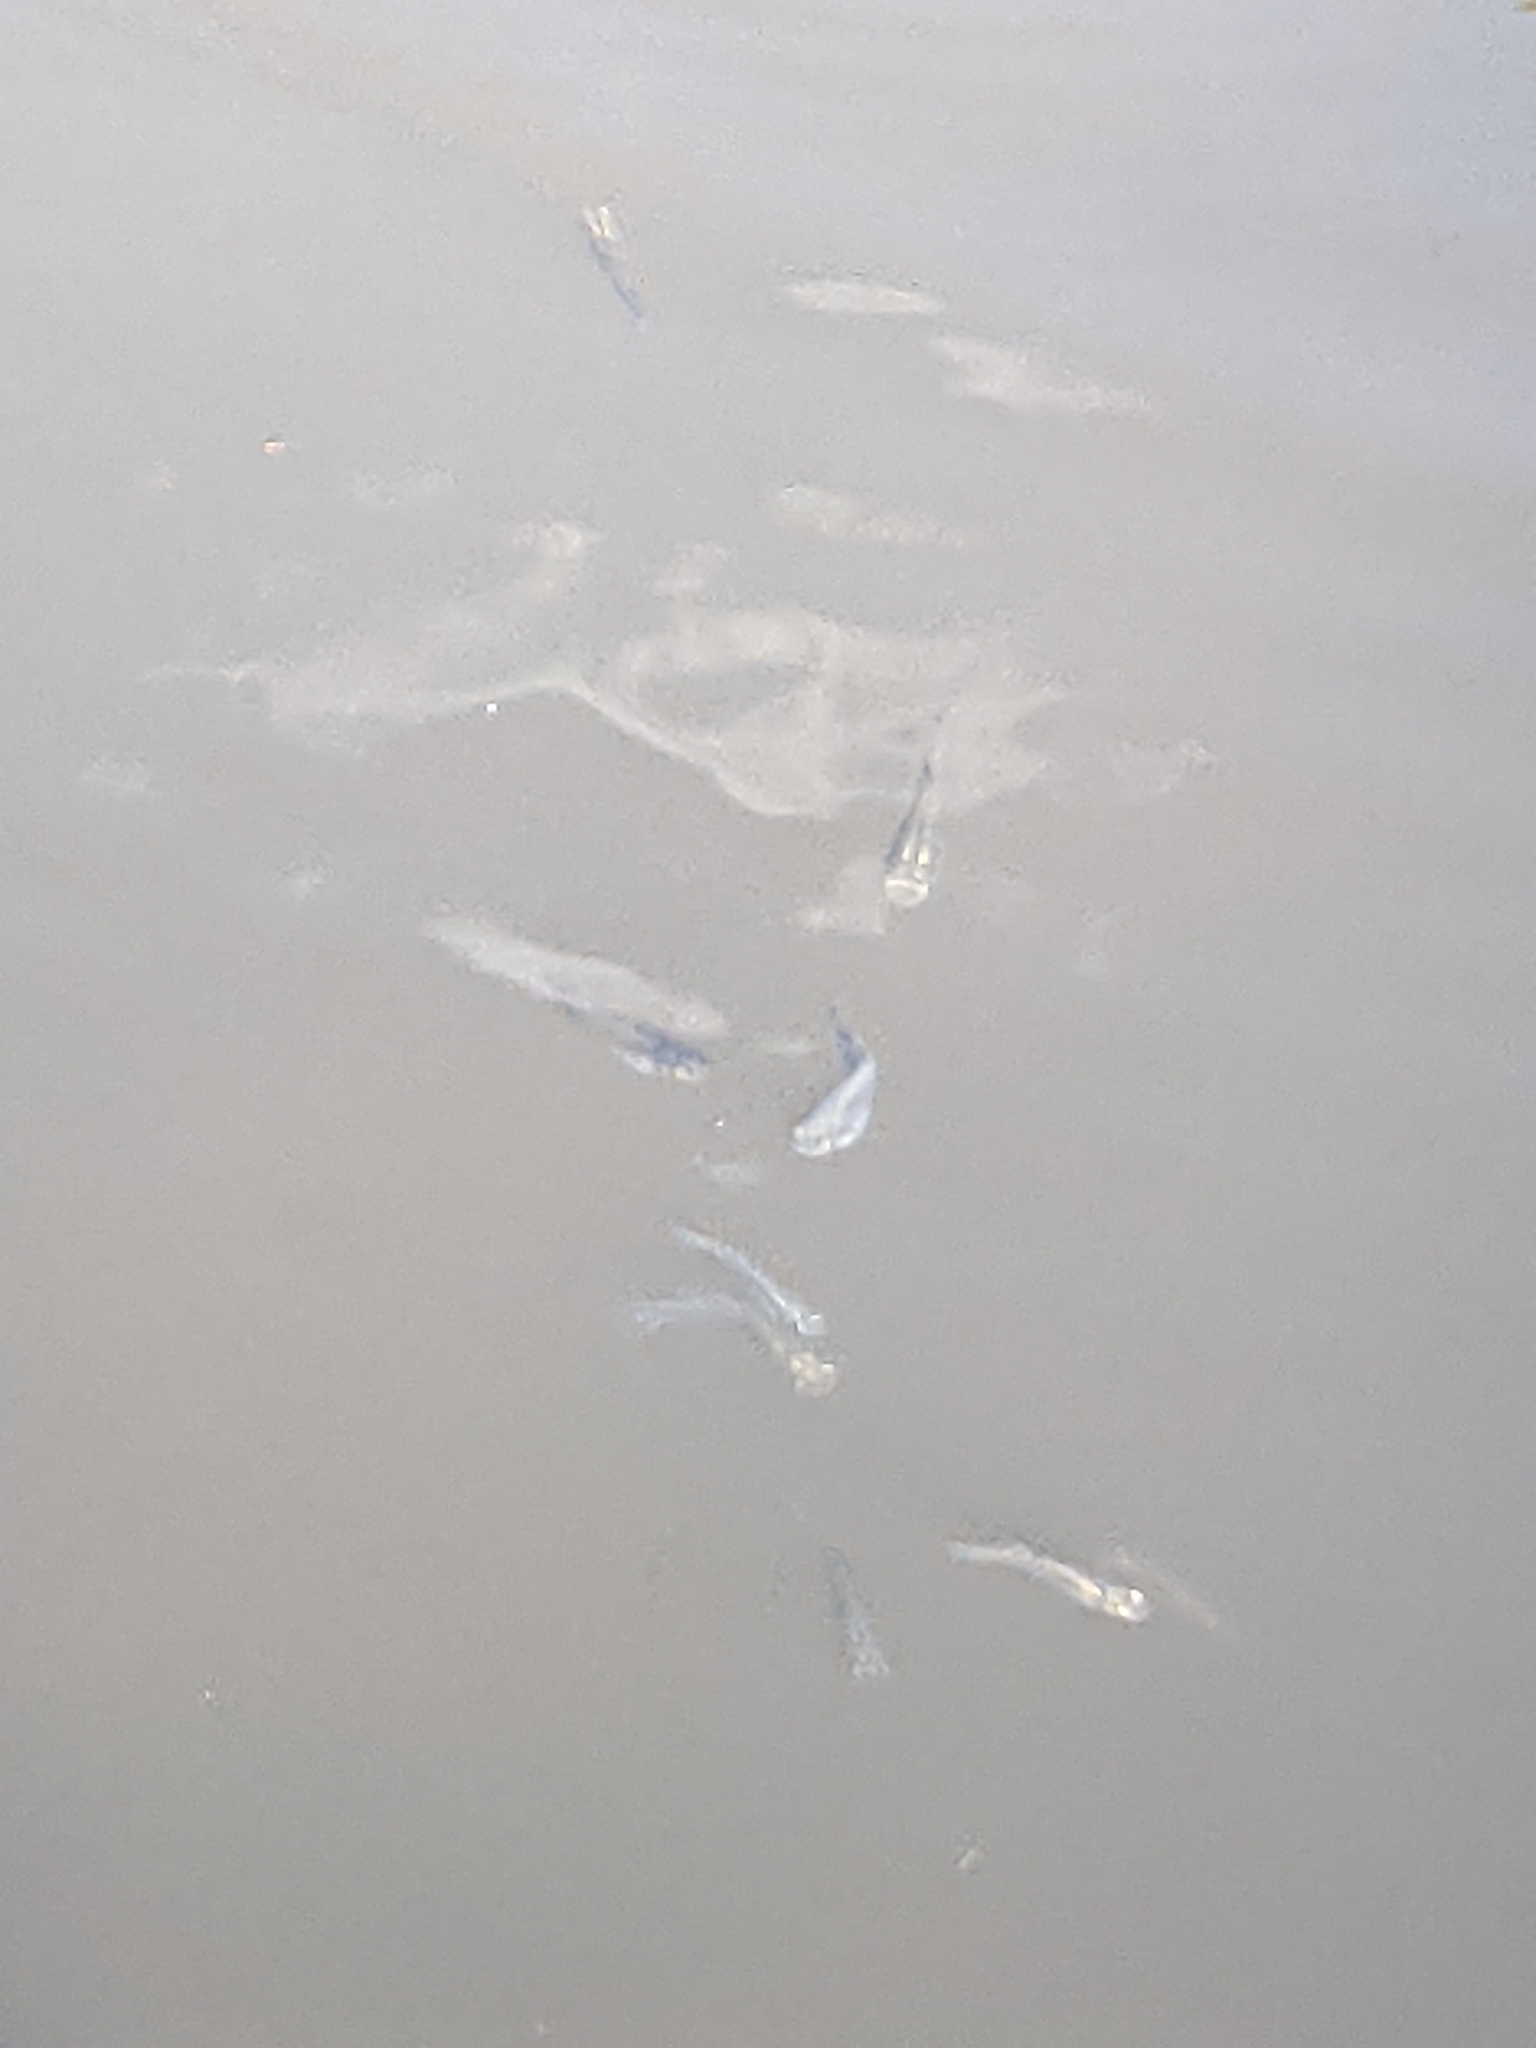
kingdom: Animalia
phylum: Chordata
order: Cyprinodontiformes
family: Poeciliidae
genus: Gambusia
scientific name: Gambusia affinis
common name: Mosquitofish
